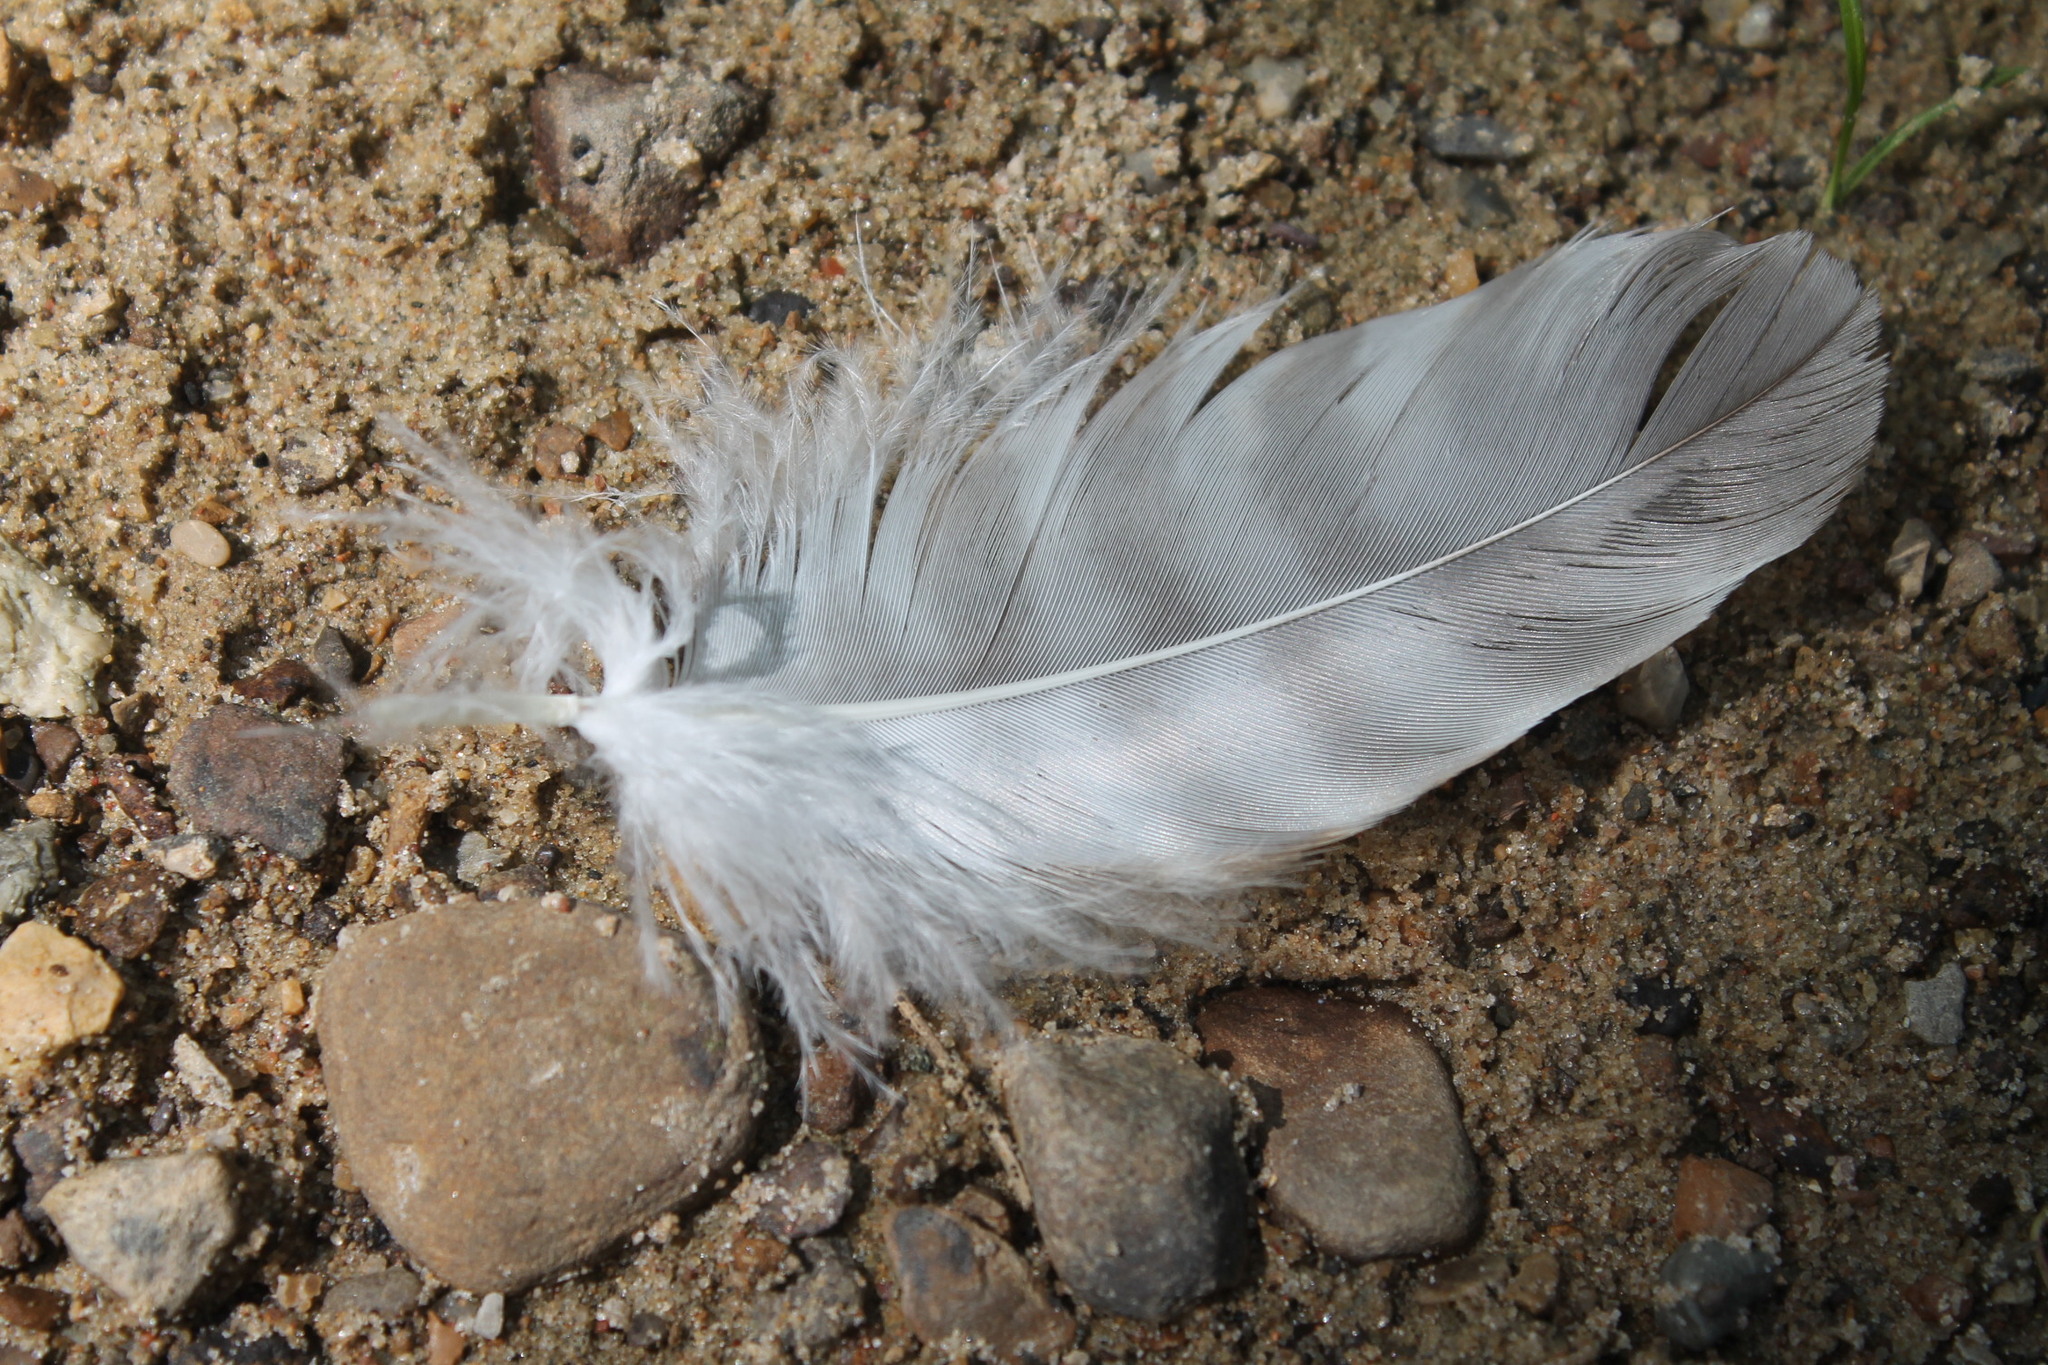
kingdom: Animalia
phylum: Chordata
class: Aves
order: Accipitriformes
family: Accipitridae
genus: Buteo
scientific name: Buteo lineatus
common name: Red-shouldered hawk
